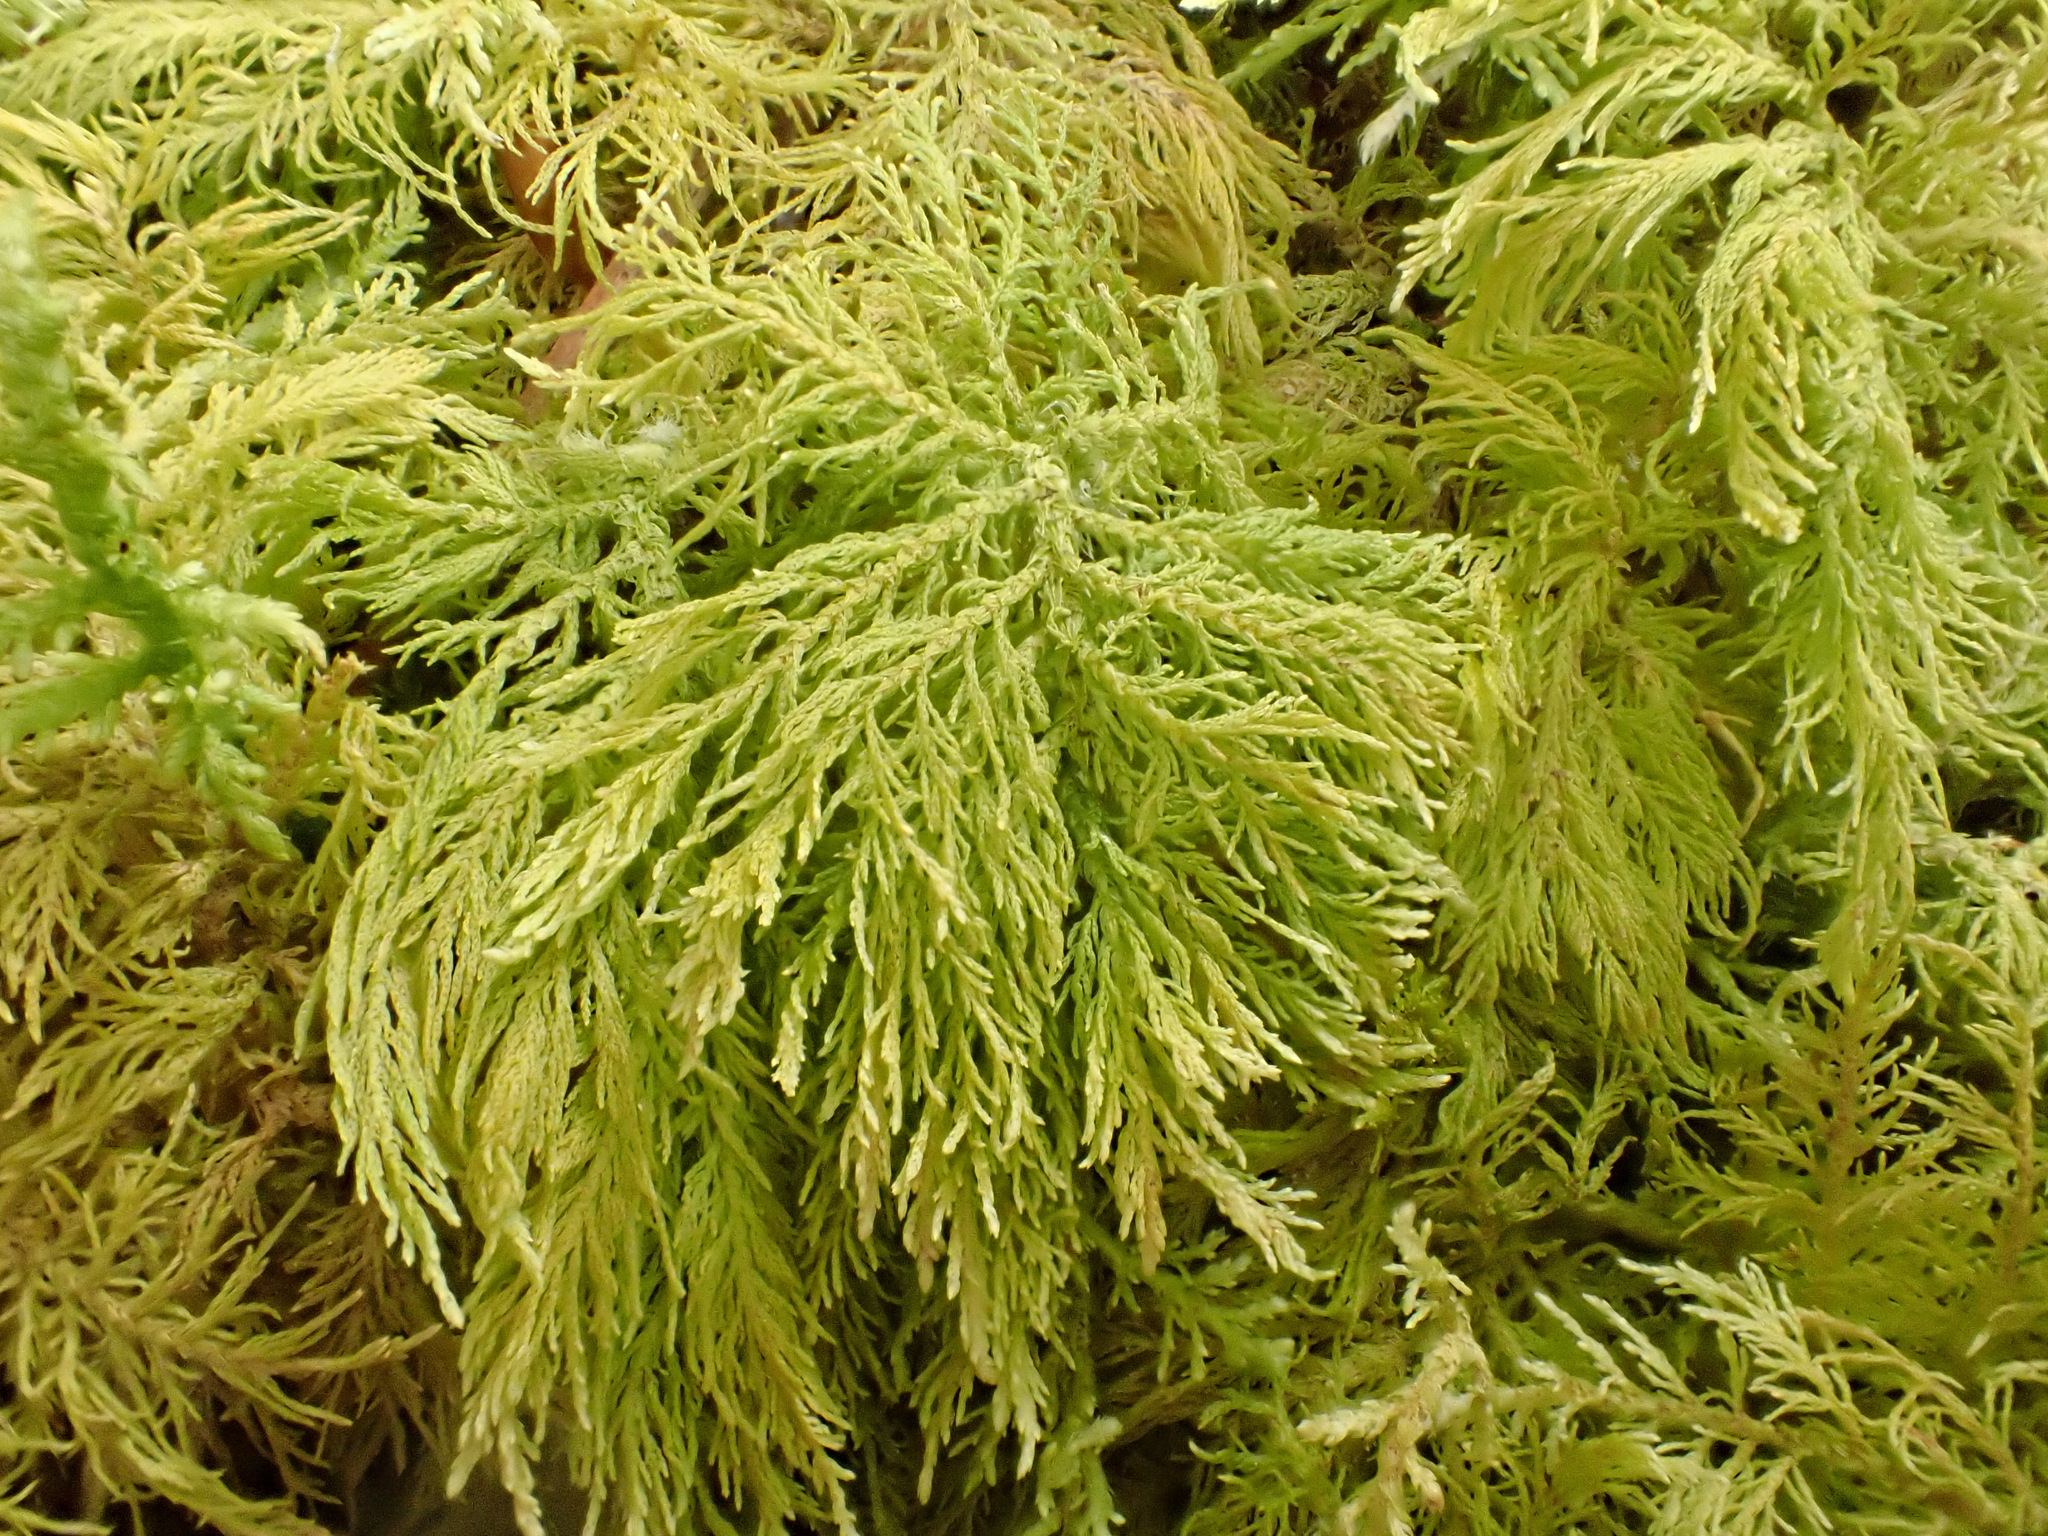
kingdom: Plantae
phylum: Bryophyta
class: Bryopsida
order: Hypnales
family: Thuidiaceae
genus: Thuidium
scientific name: Thuidium tamariscinum
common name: Common tamarisk-moss
